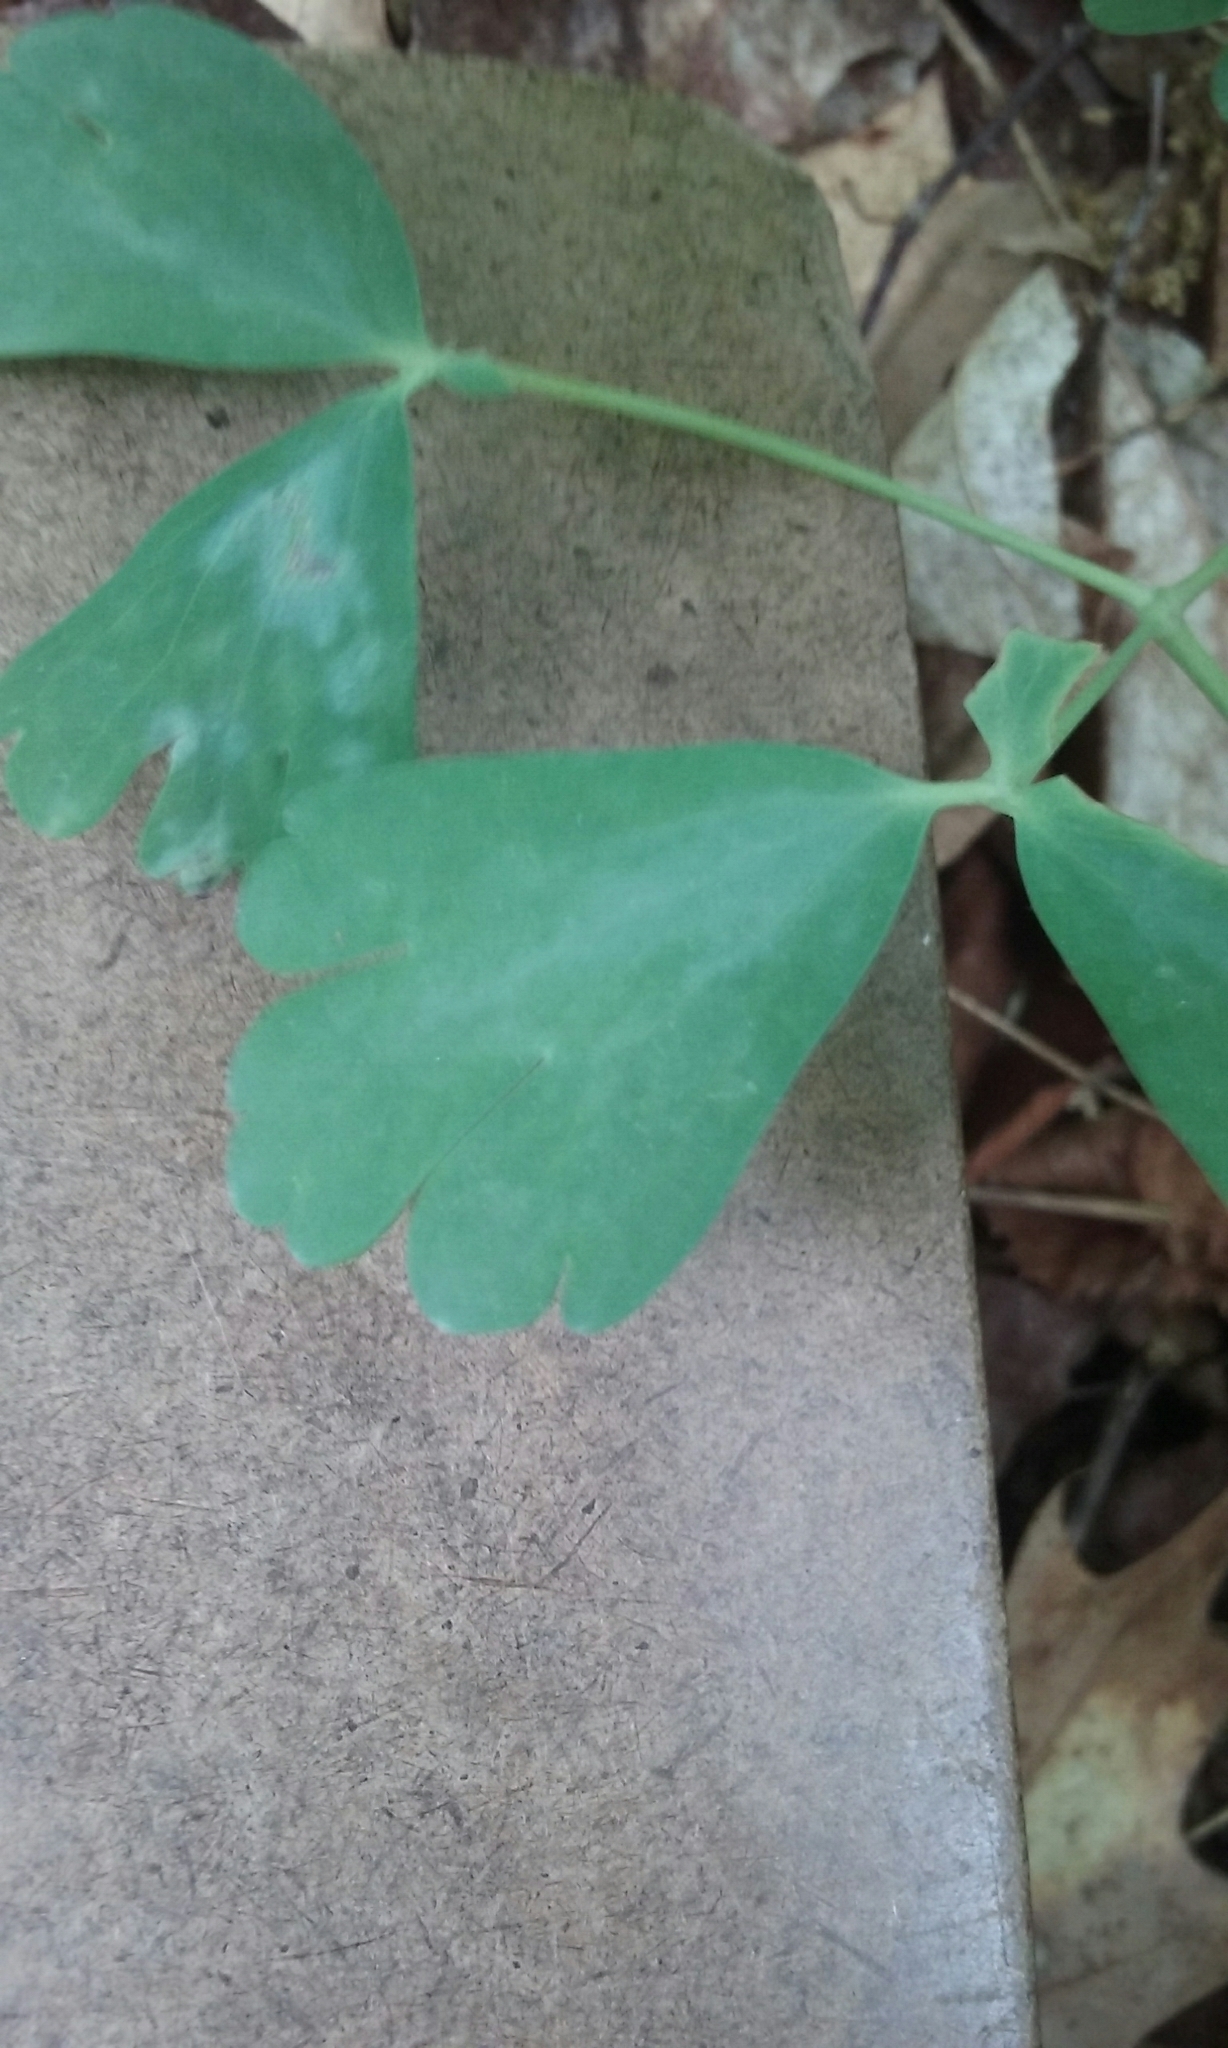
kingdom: Plantae
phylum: Tracheophyta
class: Magnoliopsida
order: Ranunculales
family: Ranunculaceae
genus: Aquilegia
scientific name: Aquilegia canadensis
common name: American columbine
